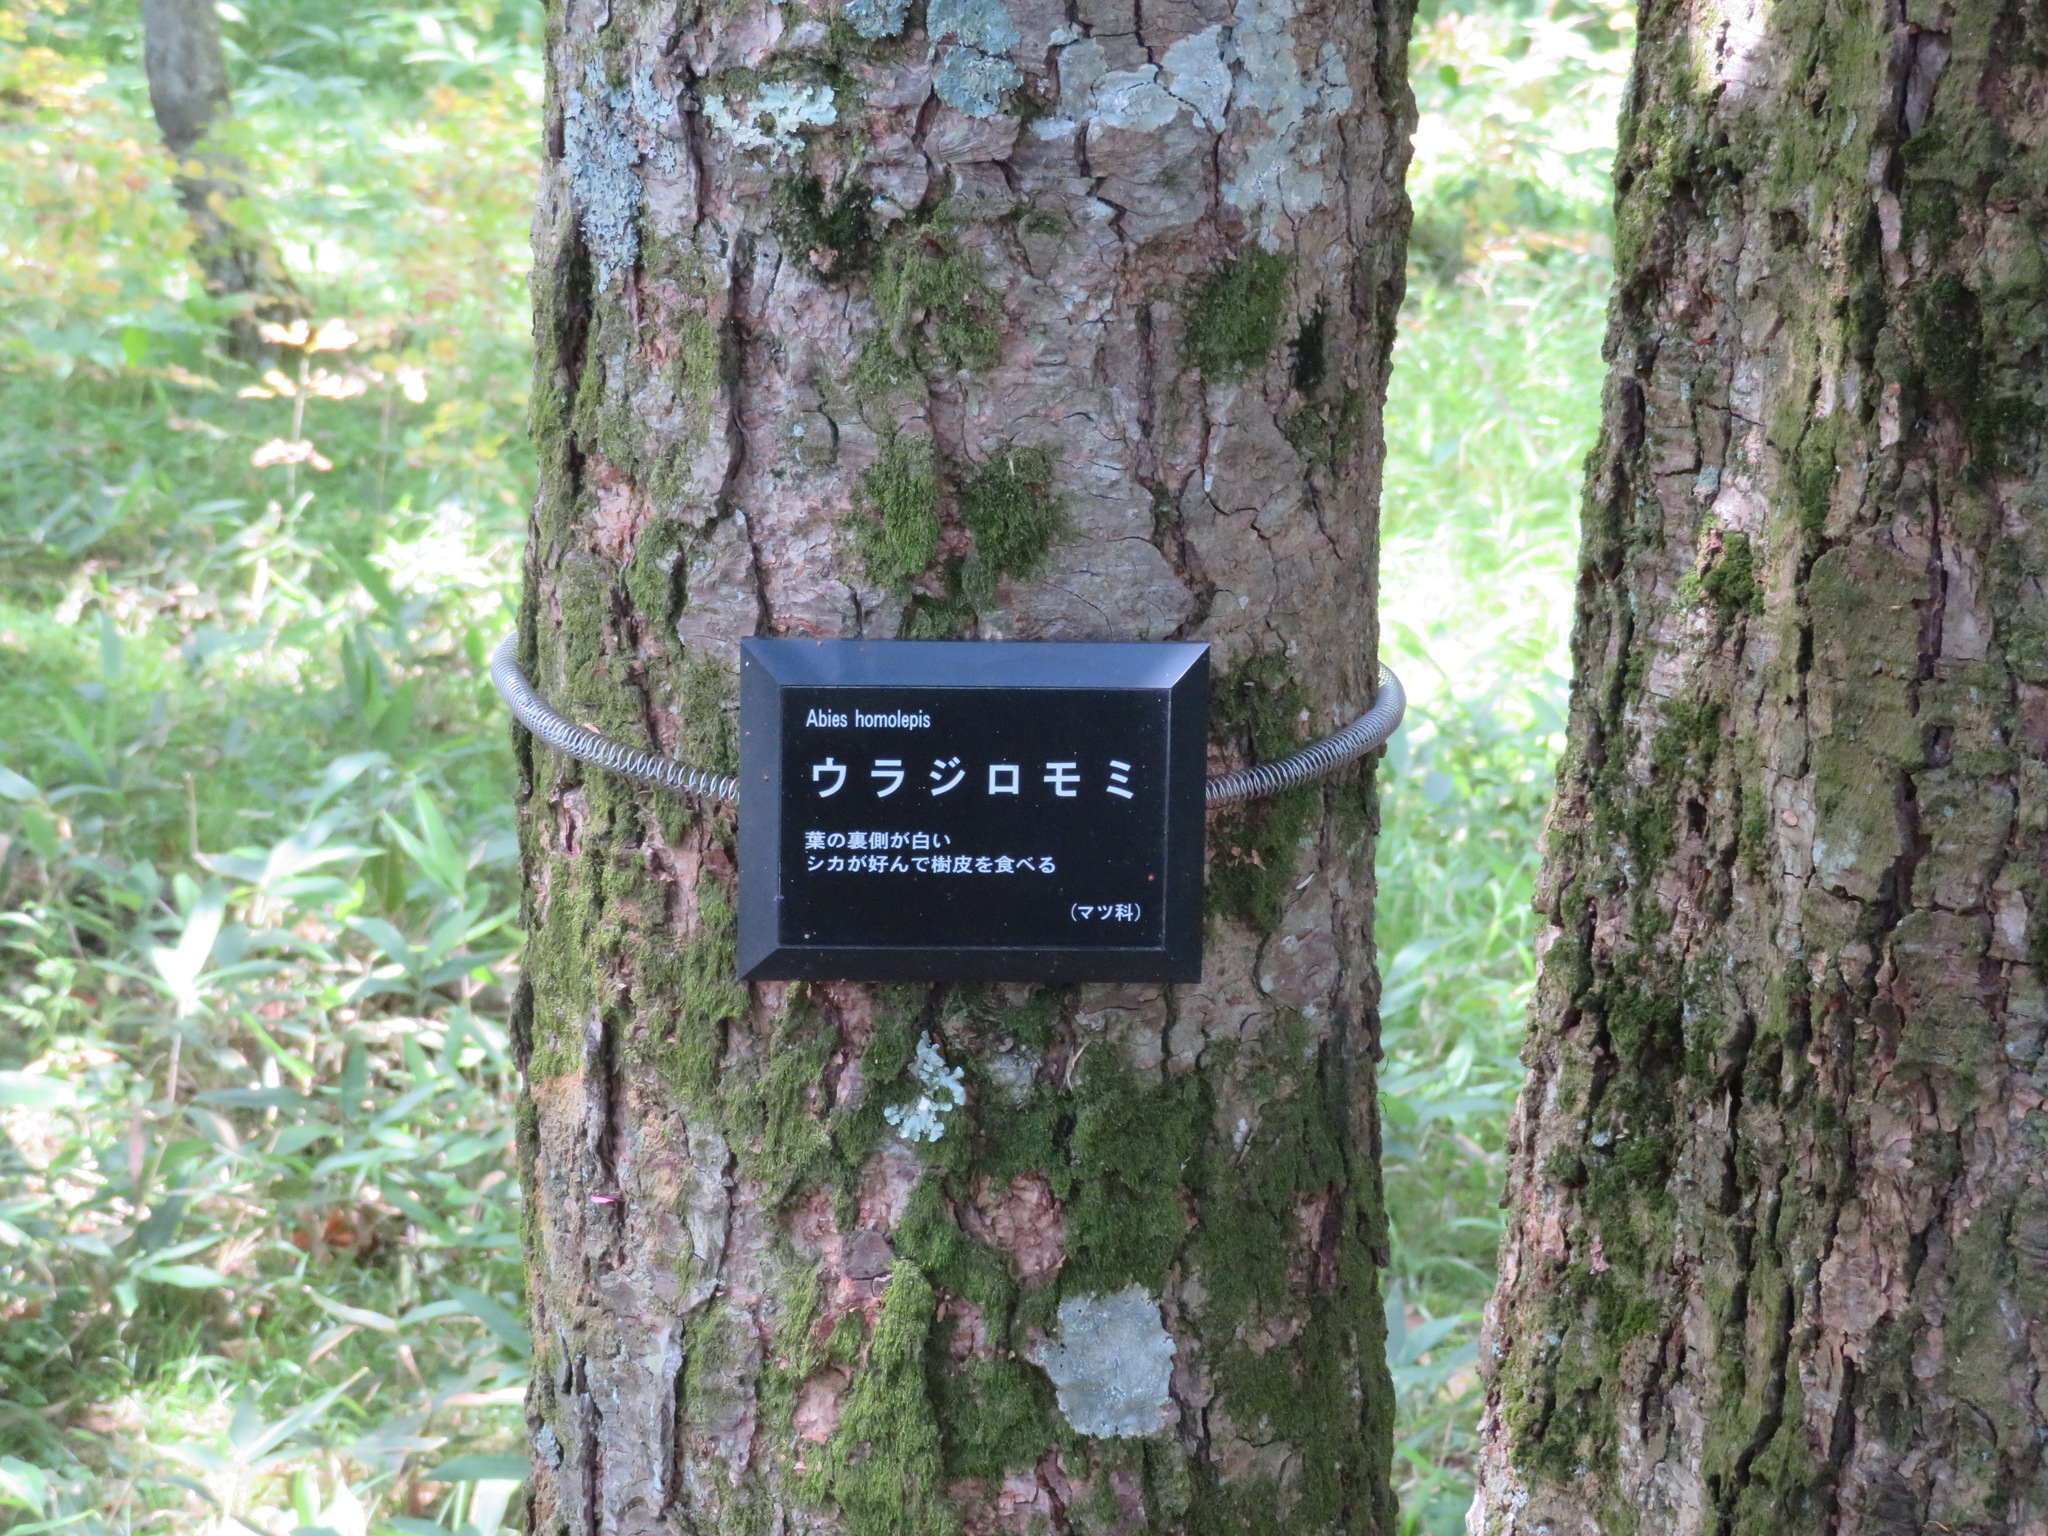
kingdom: Plantae
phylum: Tracheophyta
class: Pinopsida
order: Pinales
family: Pinaceae
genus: Abies
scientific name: Abies homolepis
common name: Nikko fir
